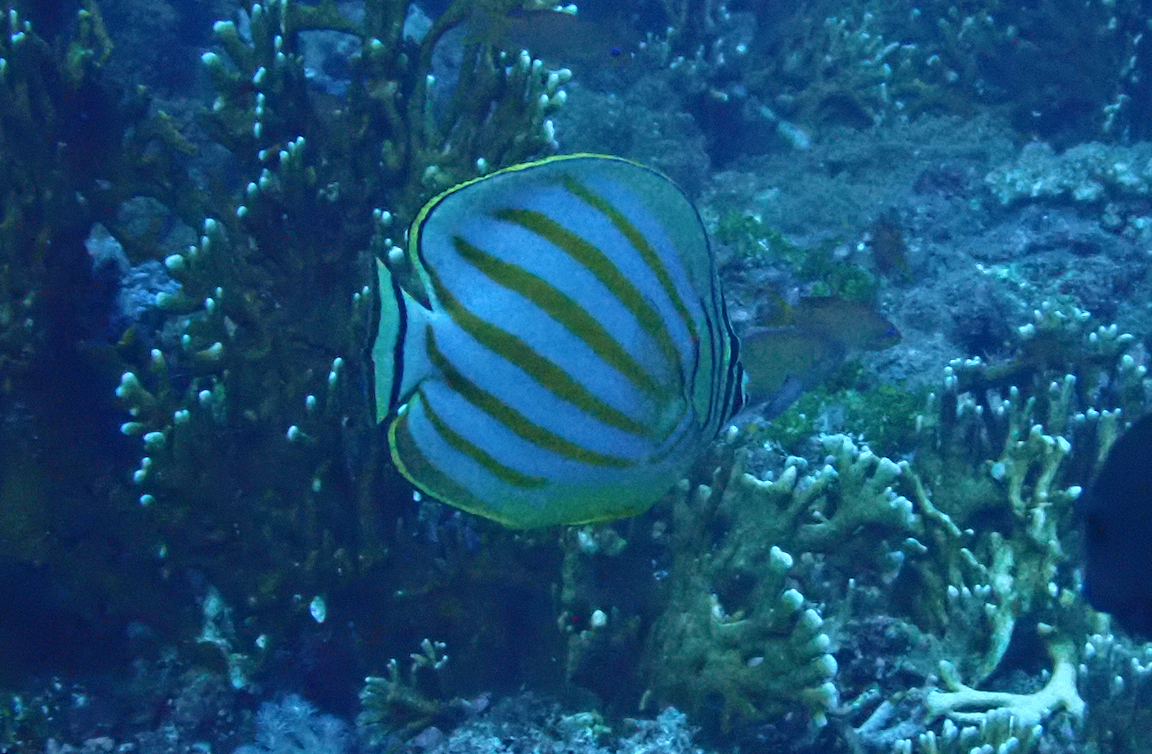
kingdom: Animalia
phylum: Chordata
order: Perciformes
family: Chaetodontidae
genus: Chaetodon
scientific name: Chaetodon ornatissimus
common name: Ornate butterflyfish
